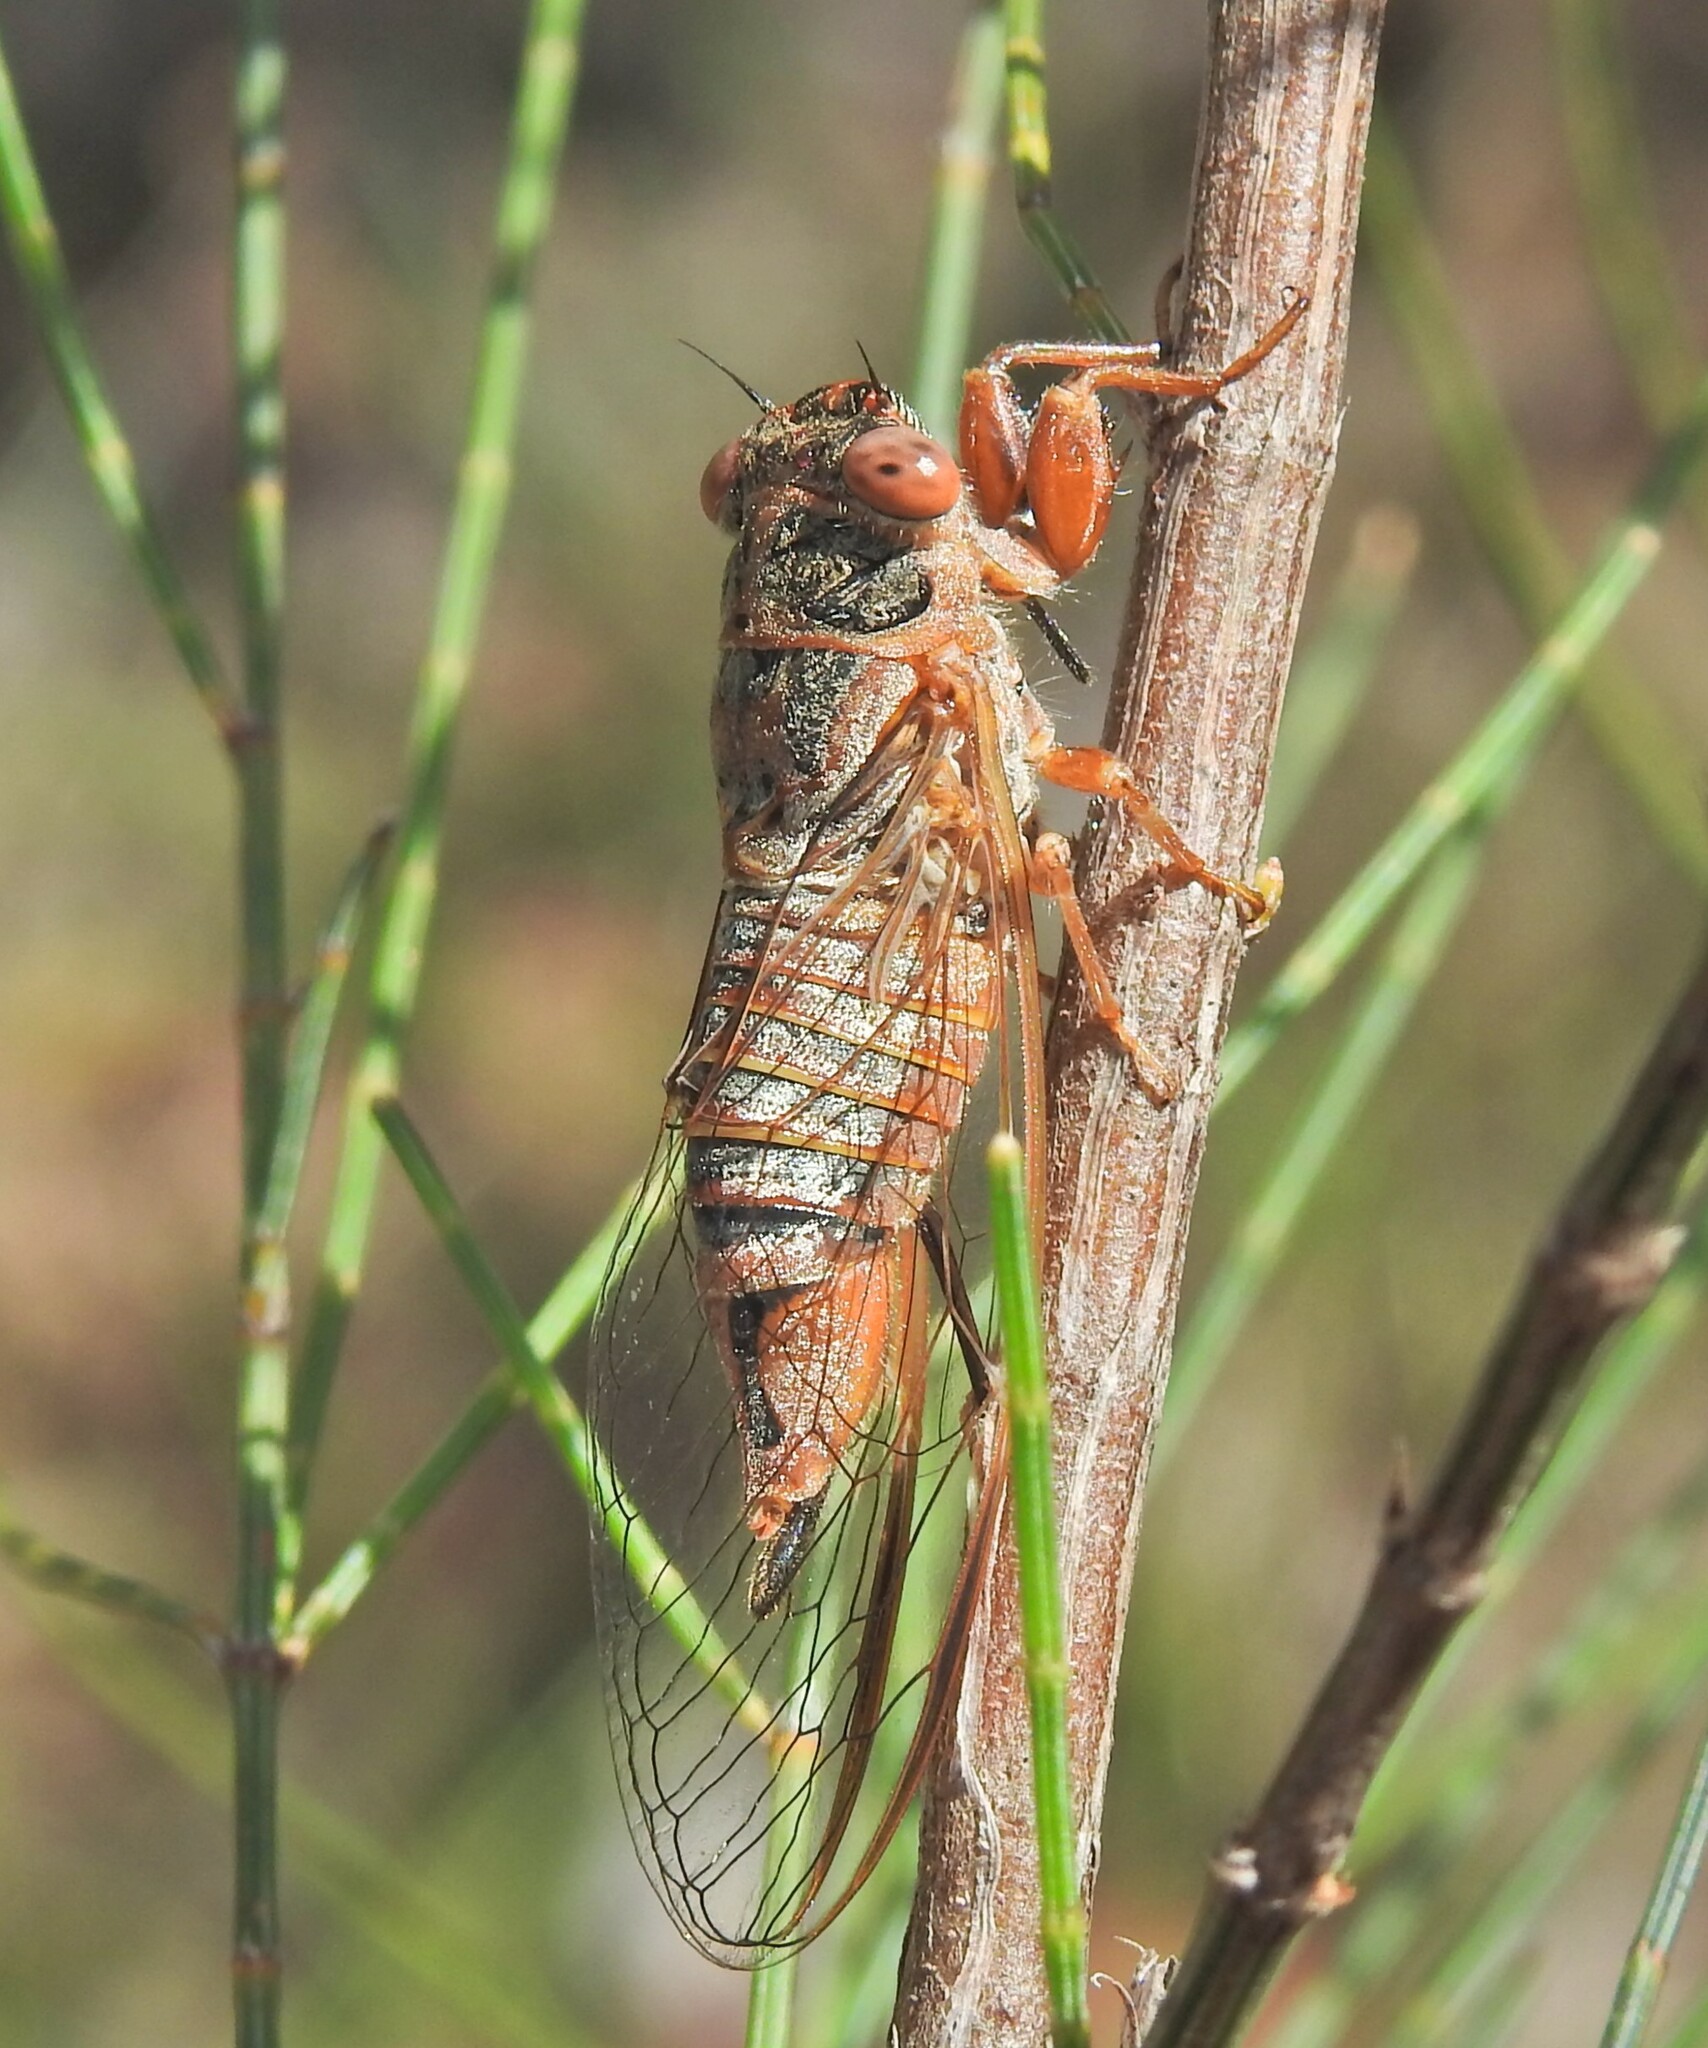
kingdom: Animalia
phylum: Arthropoda
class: Insecta
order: Hemiptera
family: Cicadidae
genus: Palapsalta
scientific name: Palapsalta circumdata
